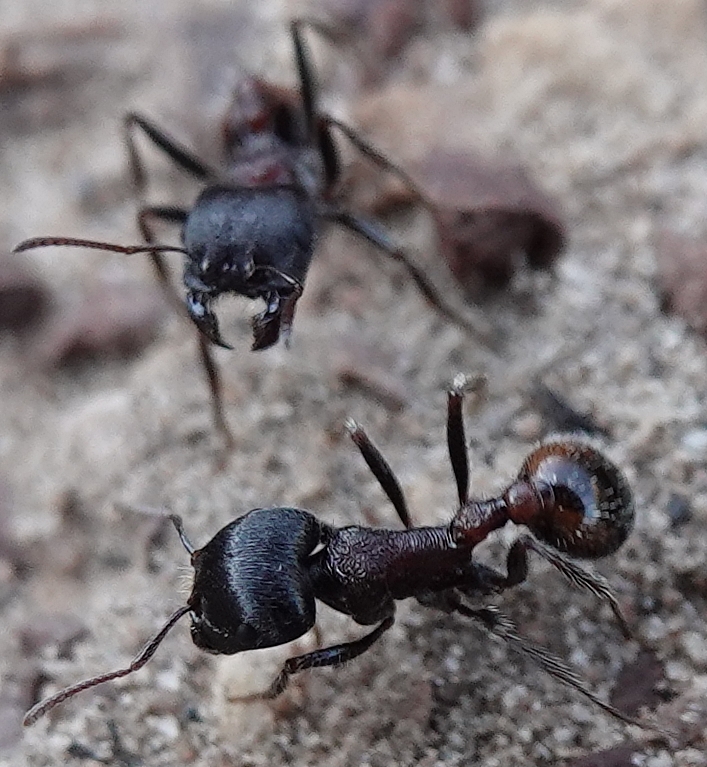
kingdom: Animalia
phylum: Arthropoda
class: Insecta
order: Hymenoptera
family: Formicidae
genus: Pogonomyrmex
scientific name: Pogonomyrmex rugosus
